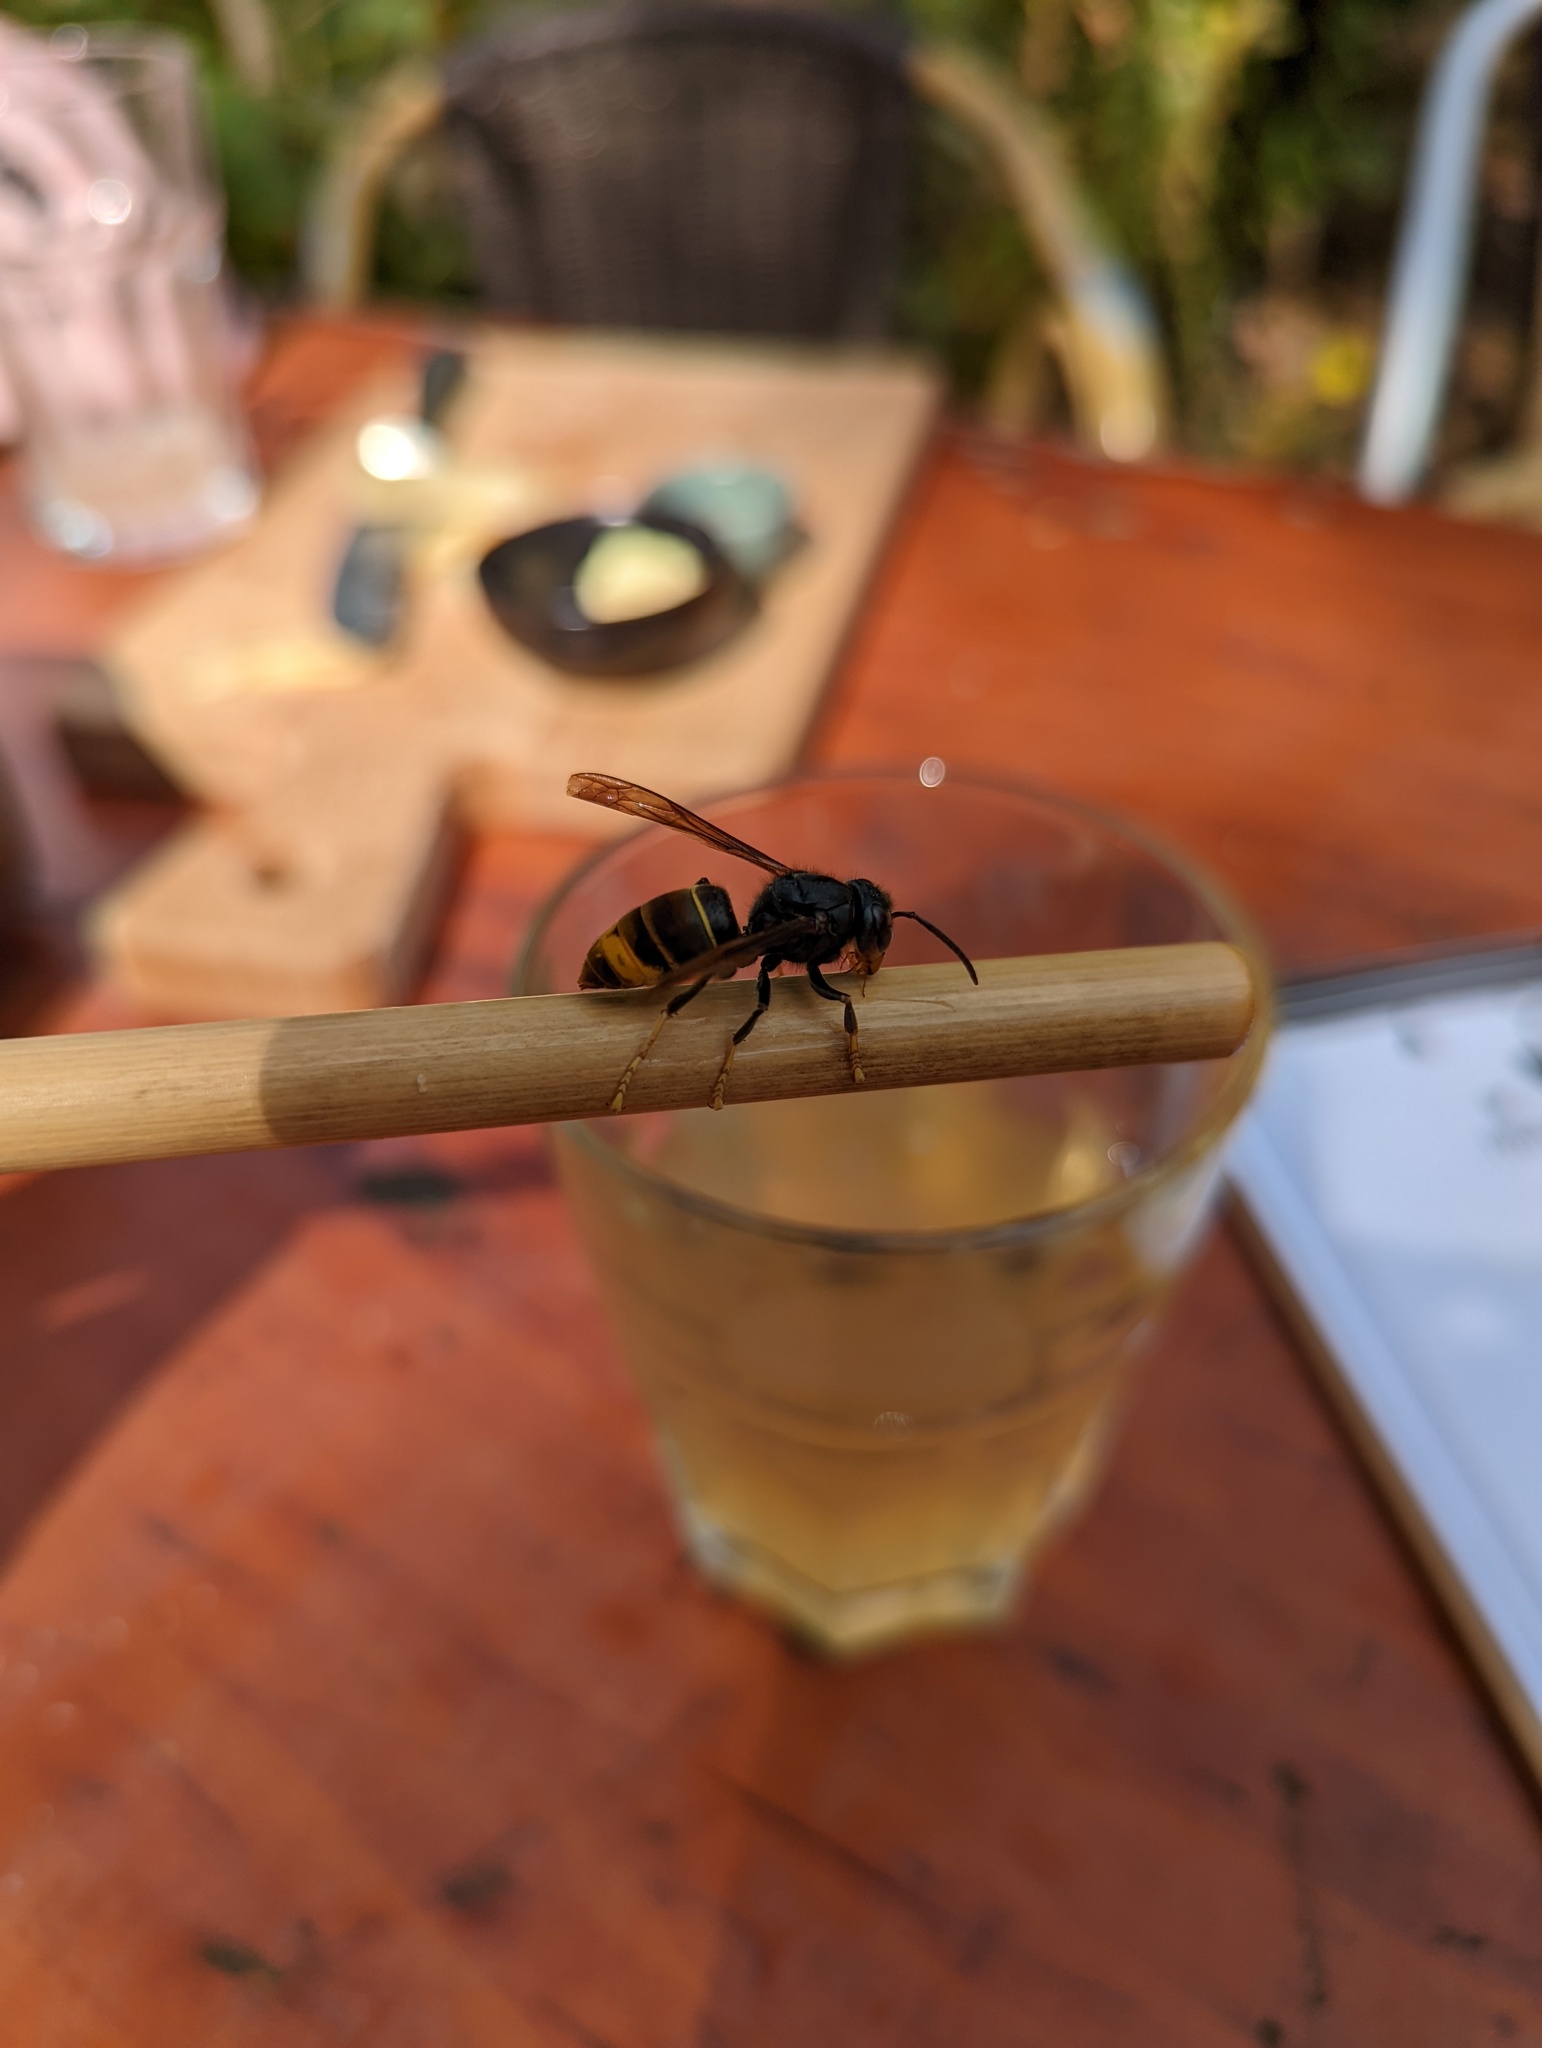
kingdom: Animalia
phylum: Arthropoda
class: Insecta
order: Hymenoptera
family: Vespidae
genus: Vespa
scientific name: Vespa velutina
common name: Asian hornet
